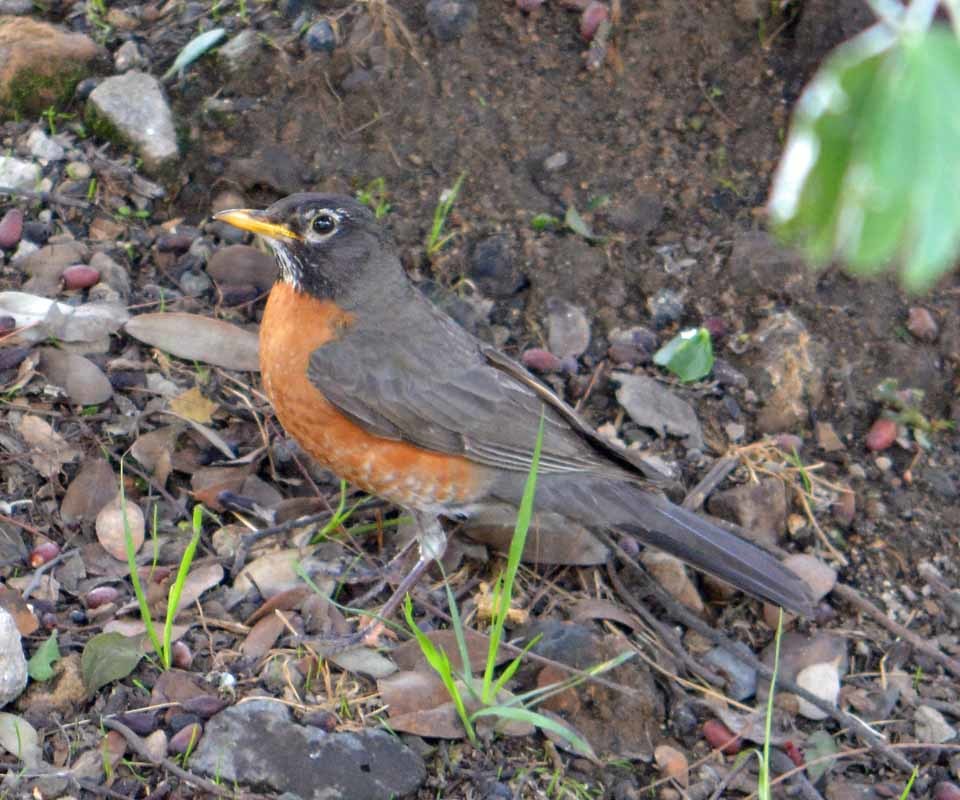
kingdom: Animalia
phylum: Chordata
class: Aves
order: Passeriformes
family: Turdidae
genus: Turdus
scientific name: Turdus migratorius
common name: American robin
